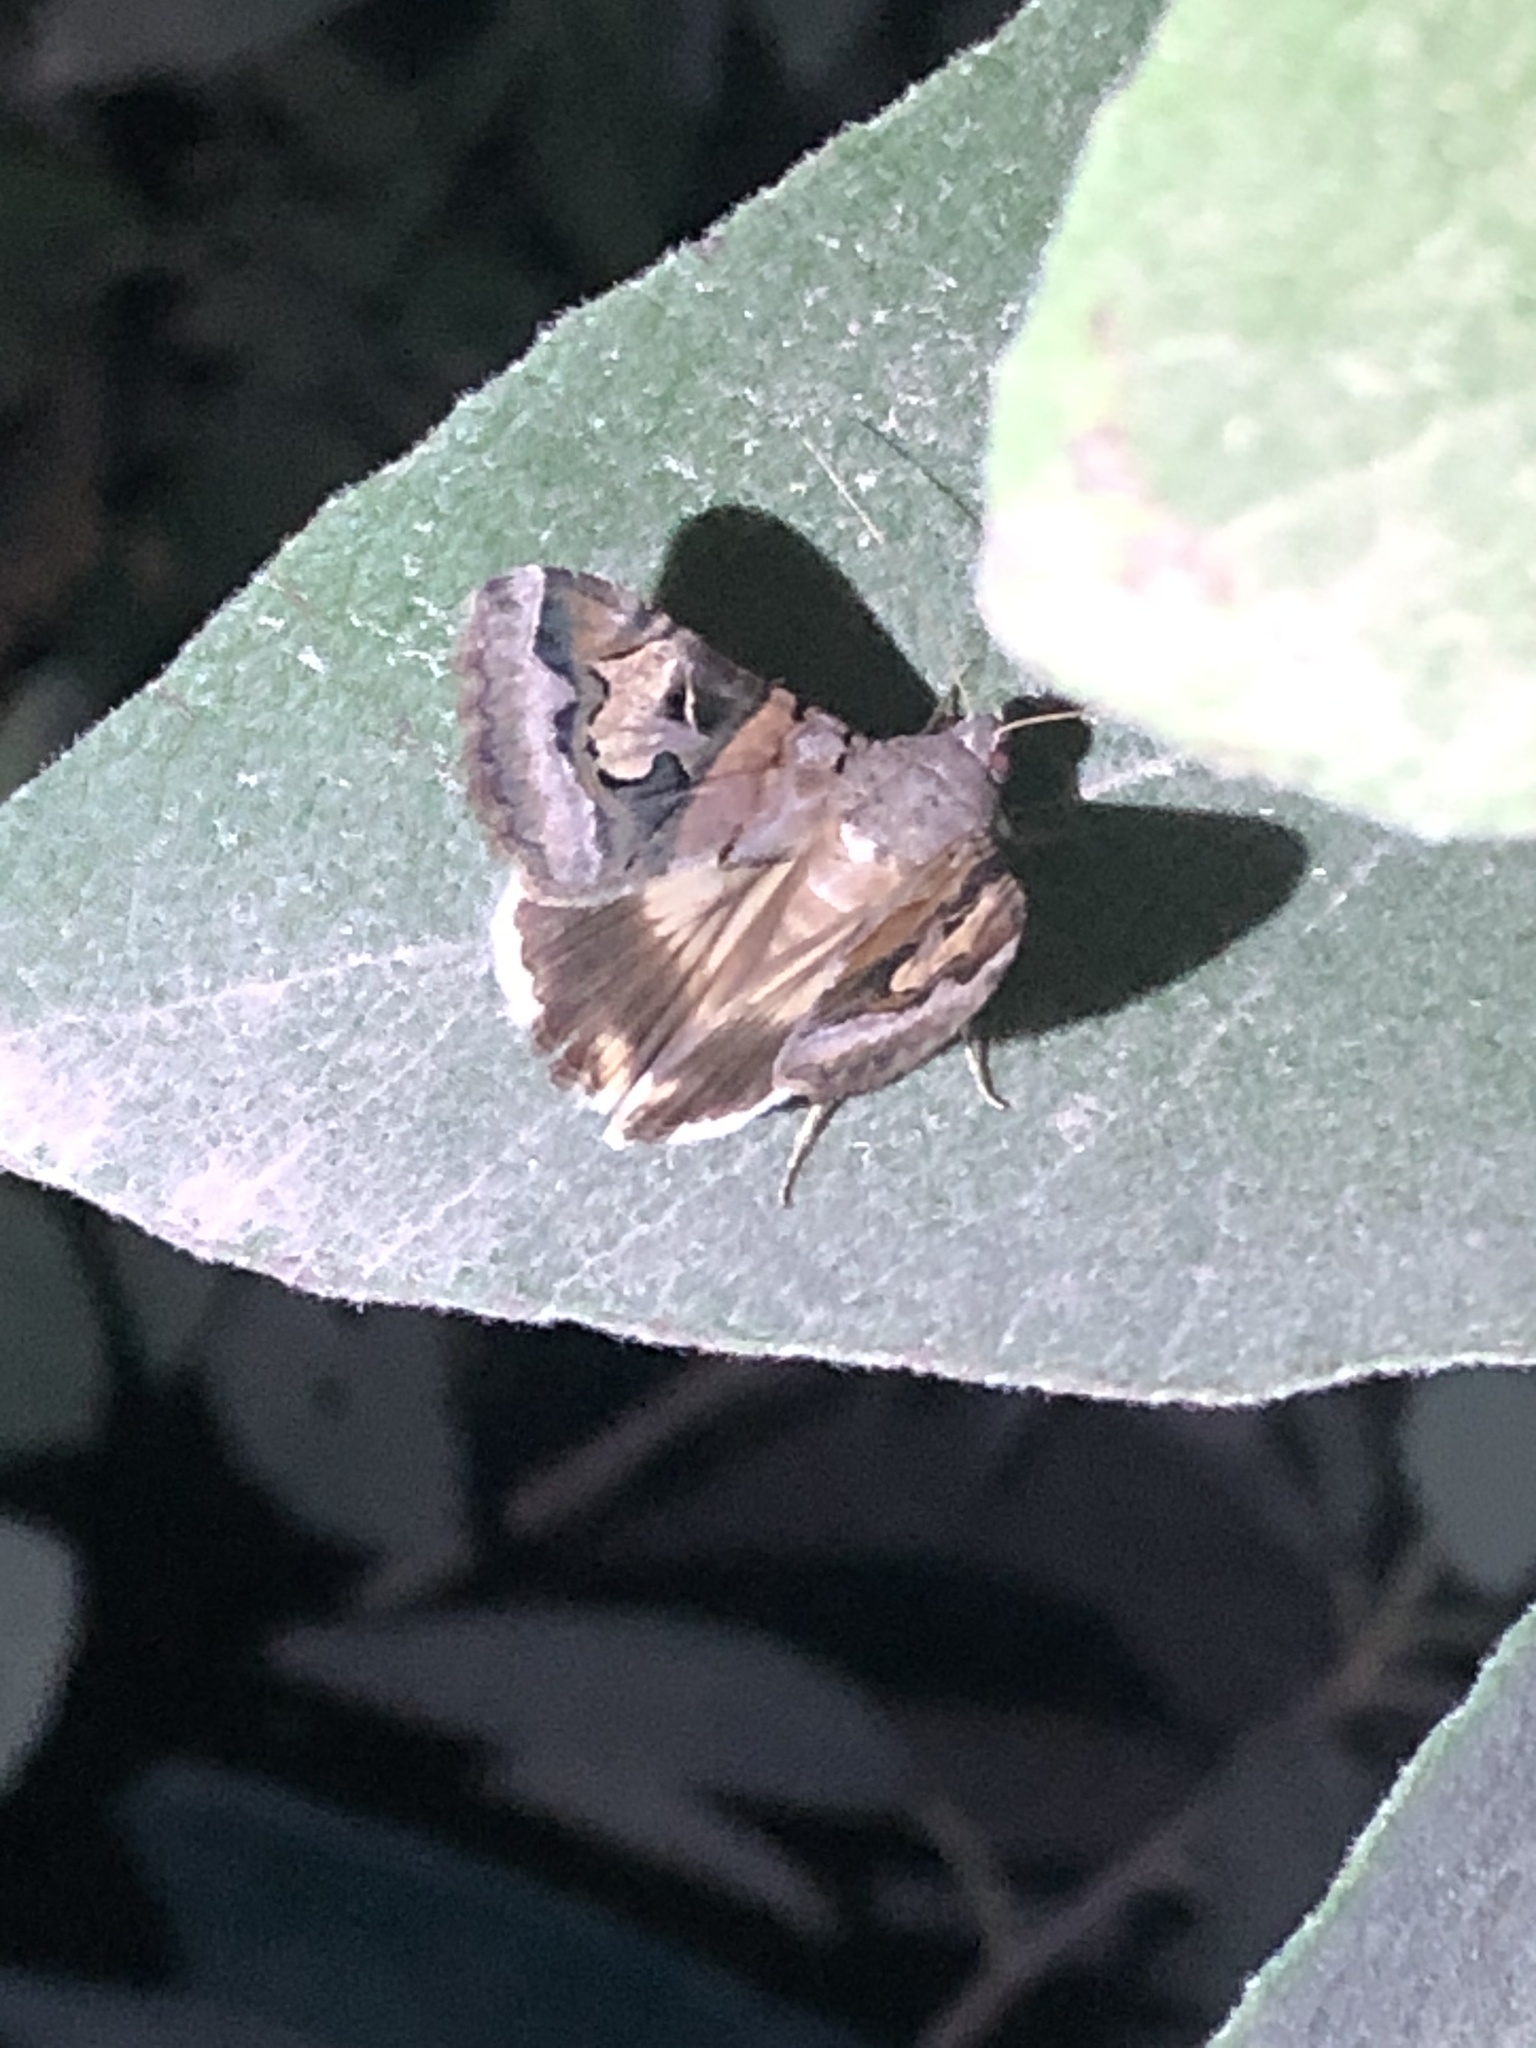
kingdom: Animalia
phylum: Arthropoda
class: Insecta
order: Lepidoptera
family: Erebidae
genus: Melipotis
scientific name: Melipotis indomita
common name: Moth
